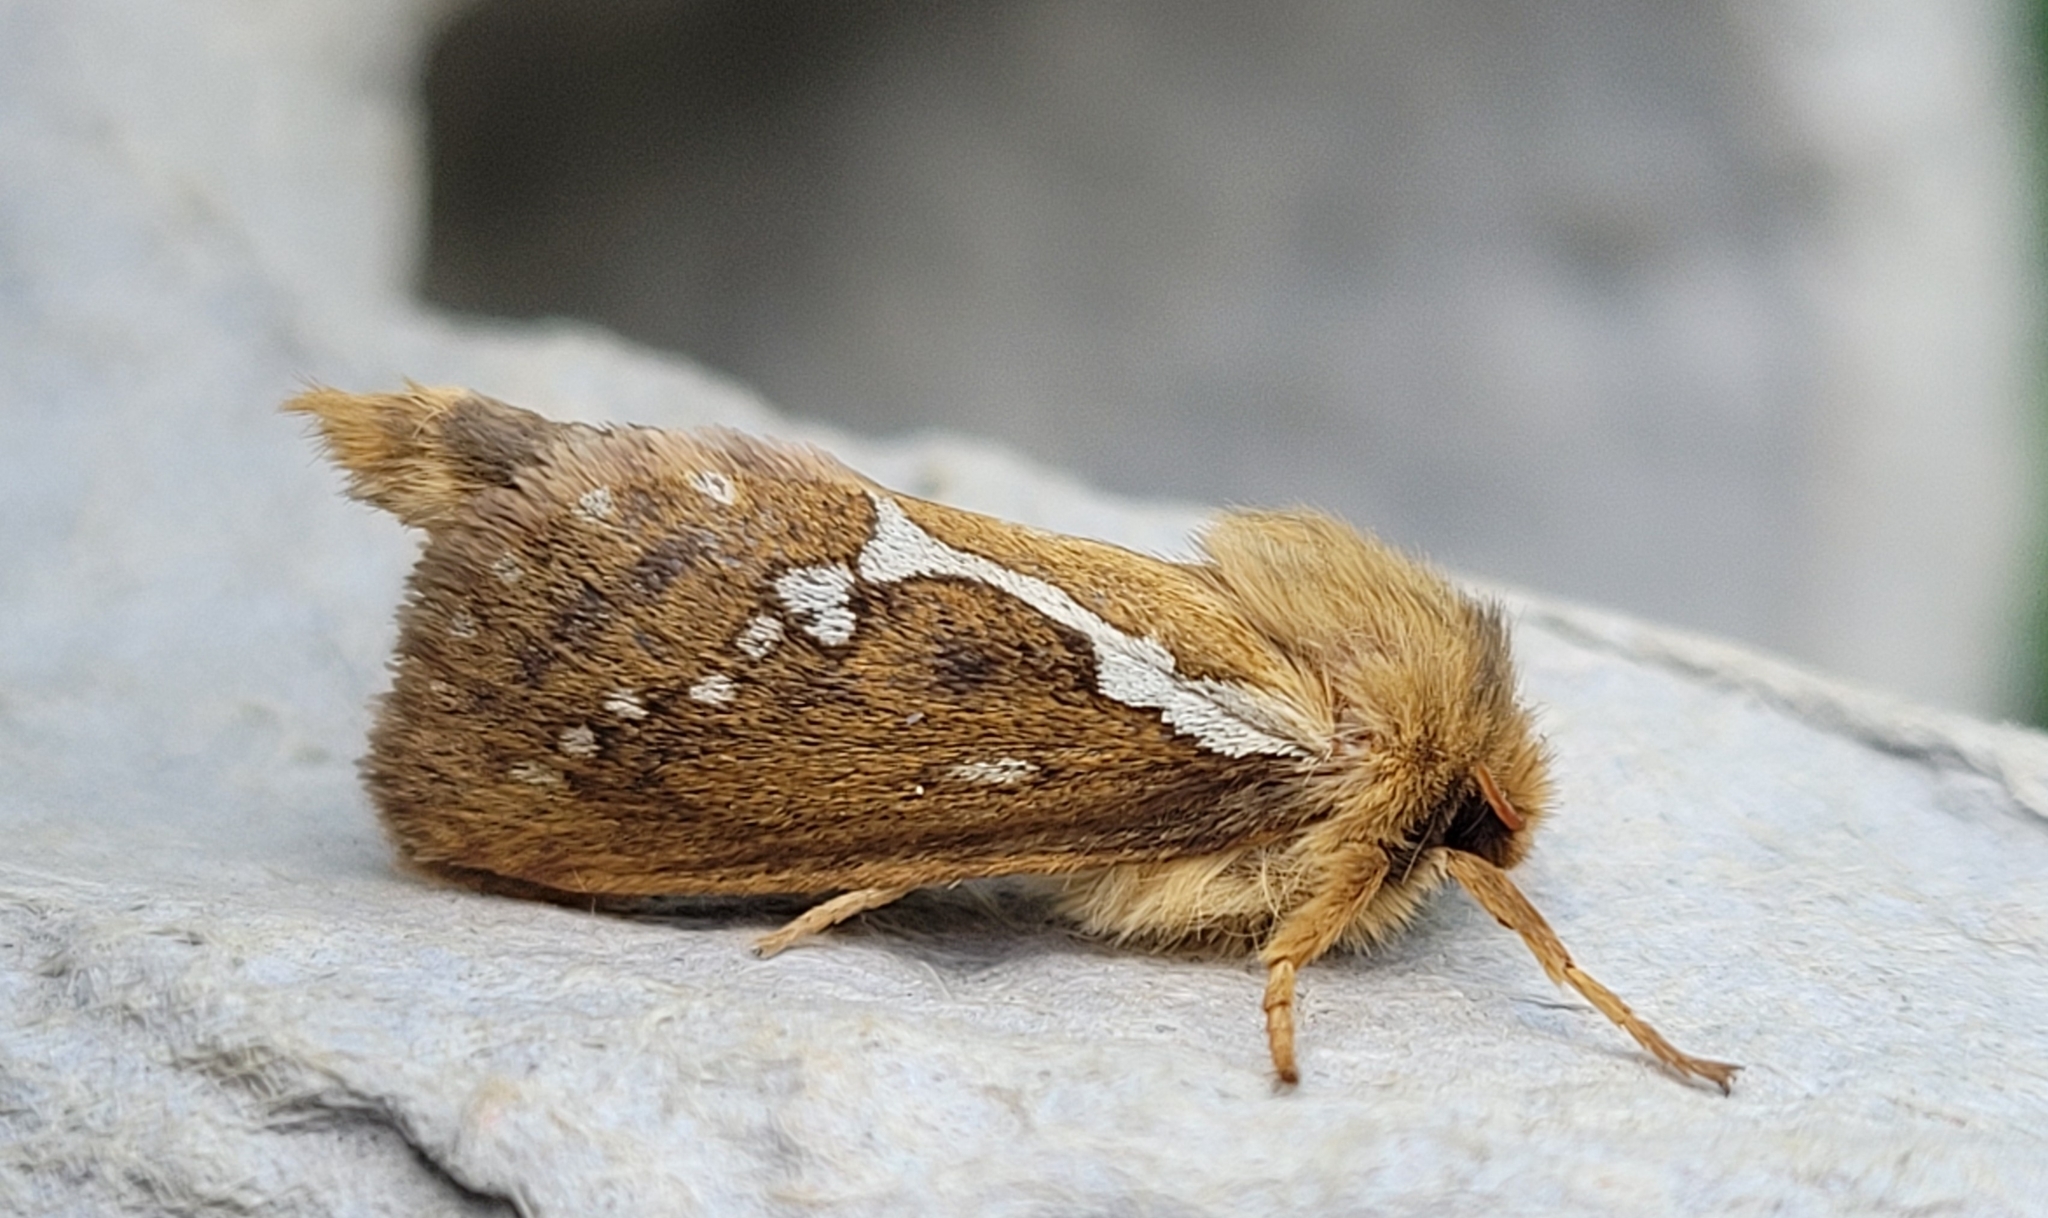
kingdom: Animalia
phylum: Arthropoda
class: Insecta
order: Lepidoptera
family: Hepialidae
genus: Korscheltellus
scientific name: Korscheltellus lupulina
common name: Common swift
